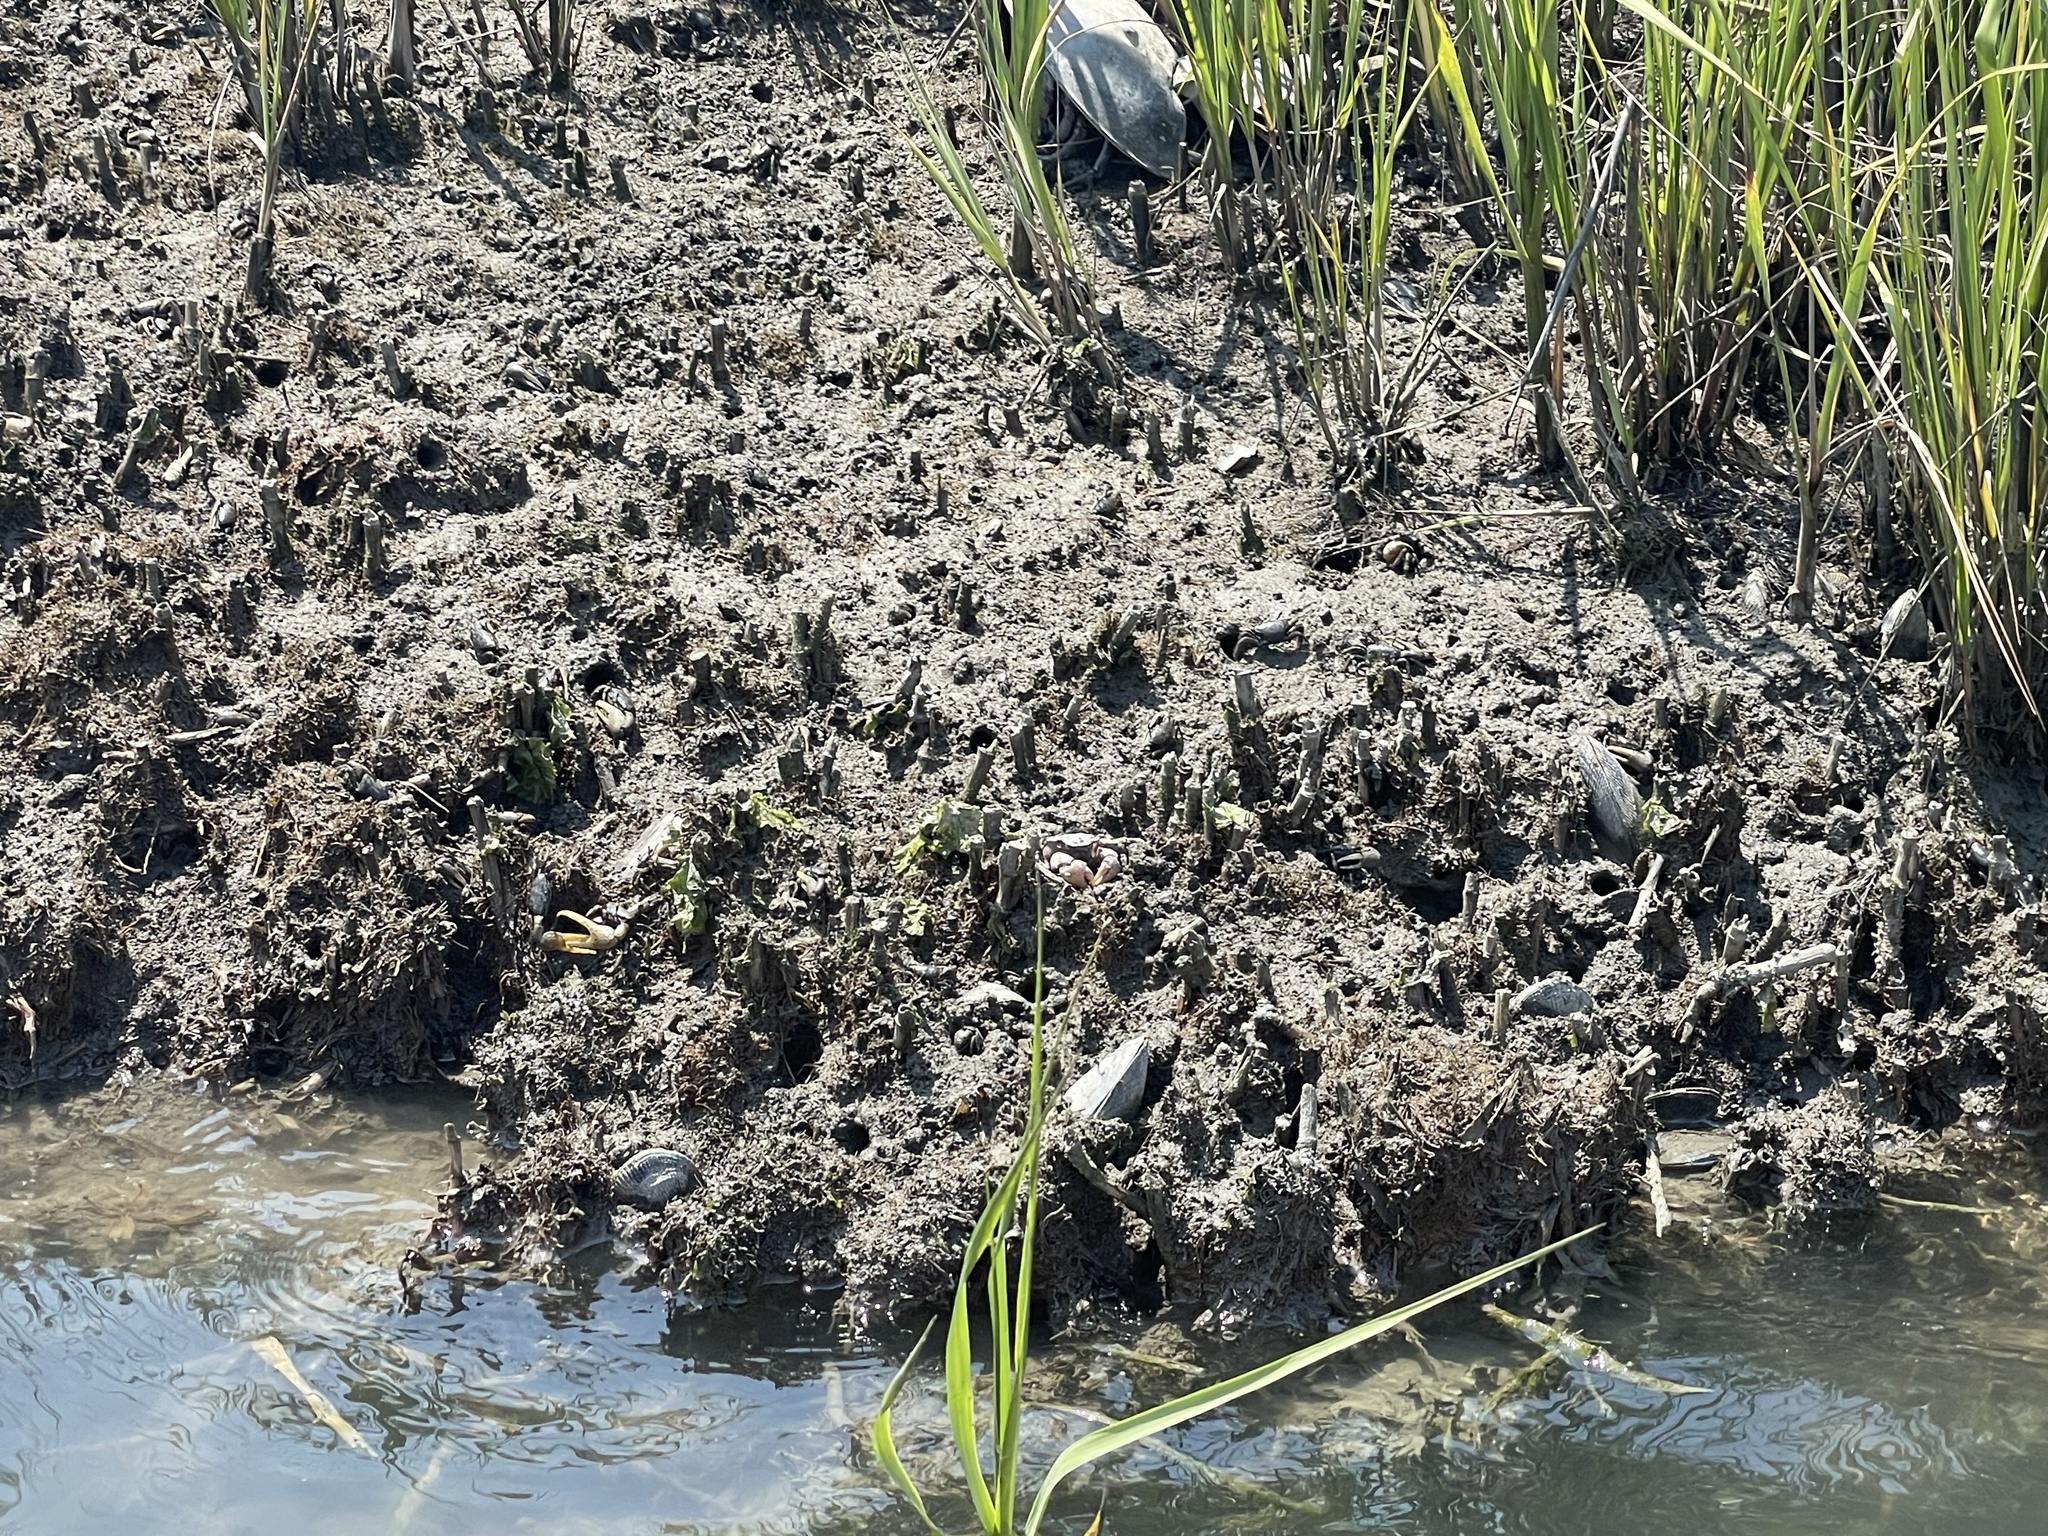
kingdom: Animalia
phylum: Arthropoda
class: Malacostraca
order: Decapoda
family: Ocypodidae
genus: Minuca
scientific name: Minuca pugnax
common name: Mud fiddler crab
